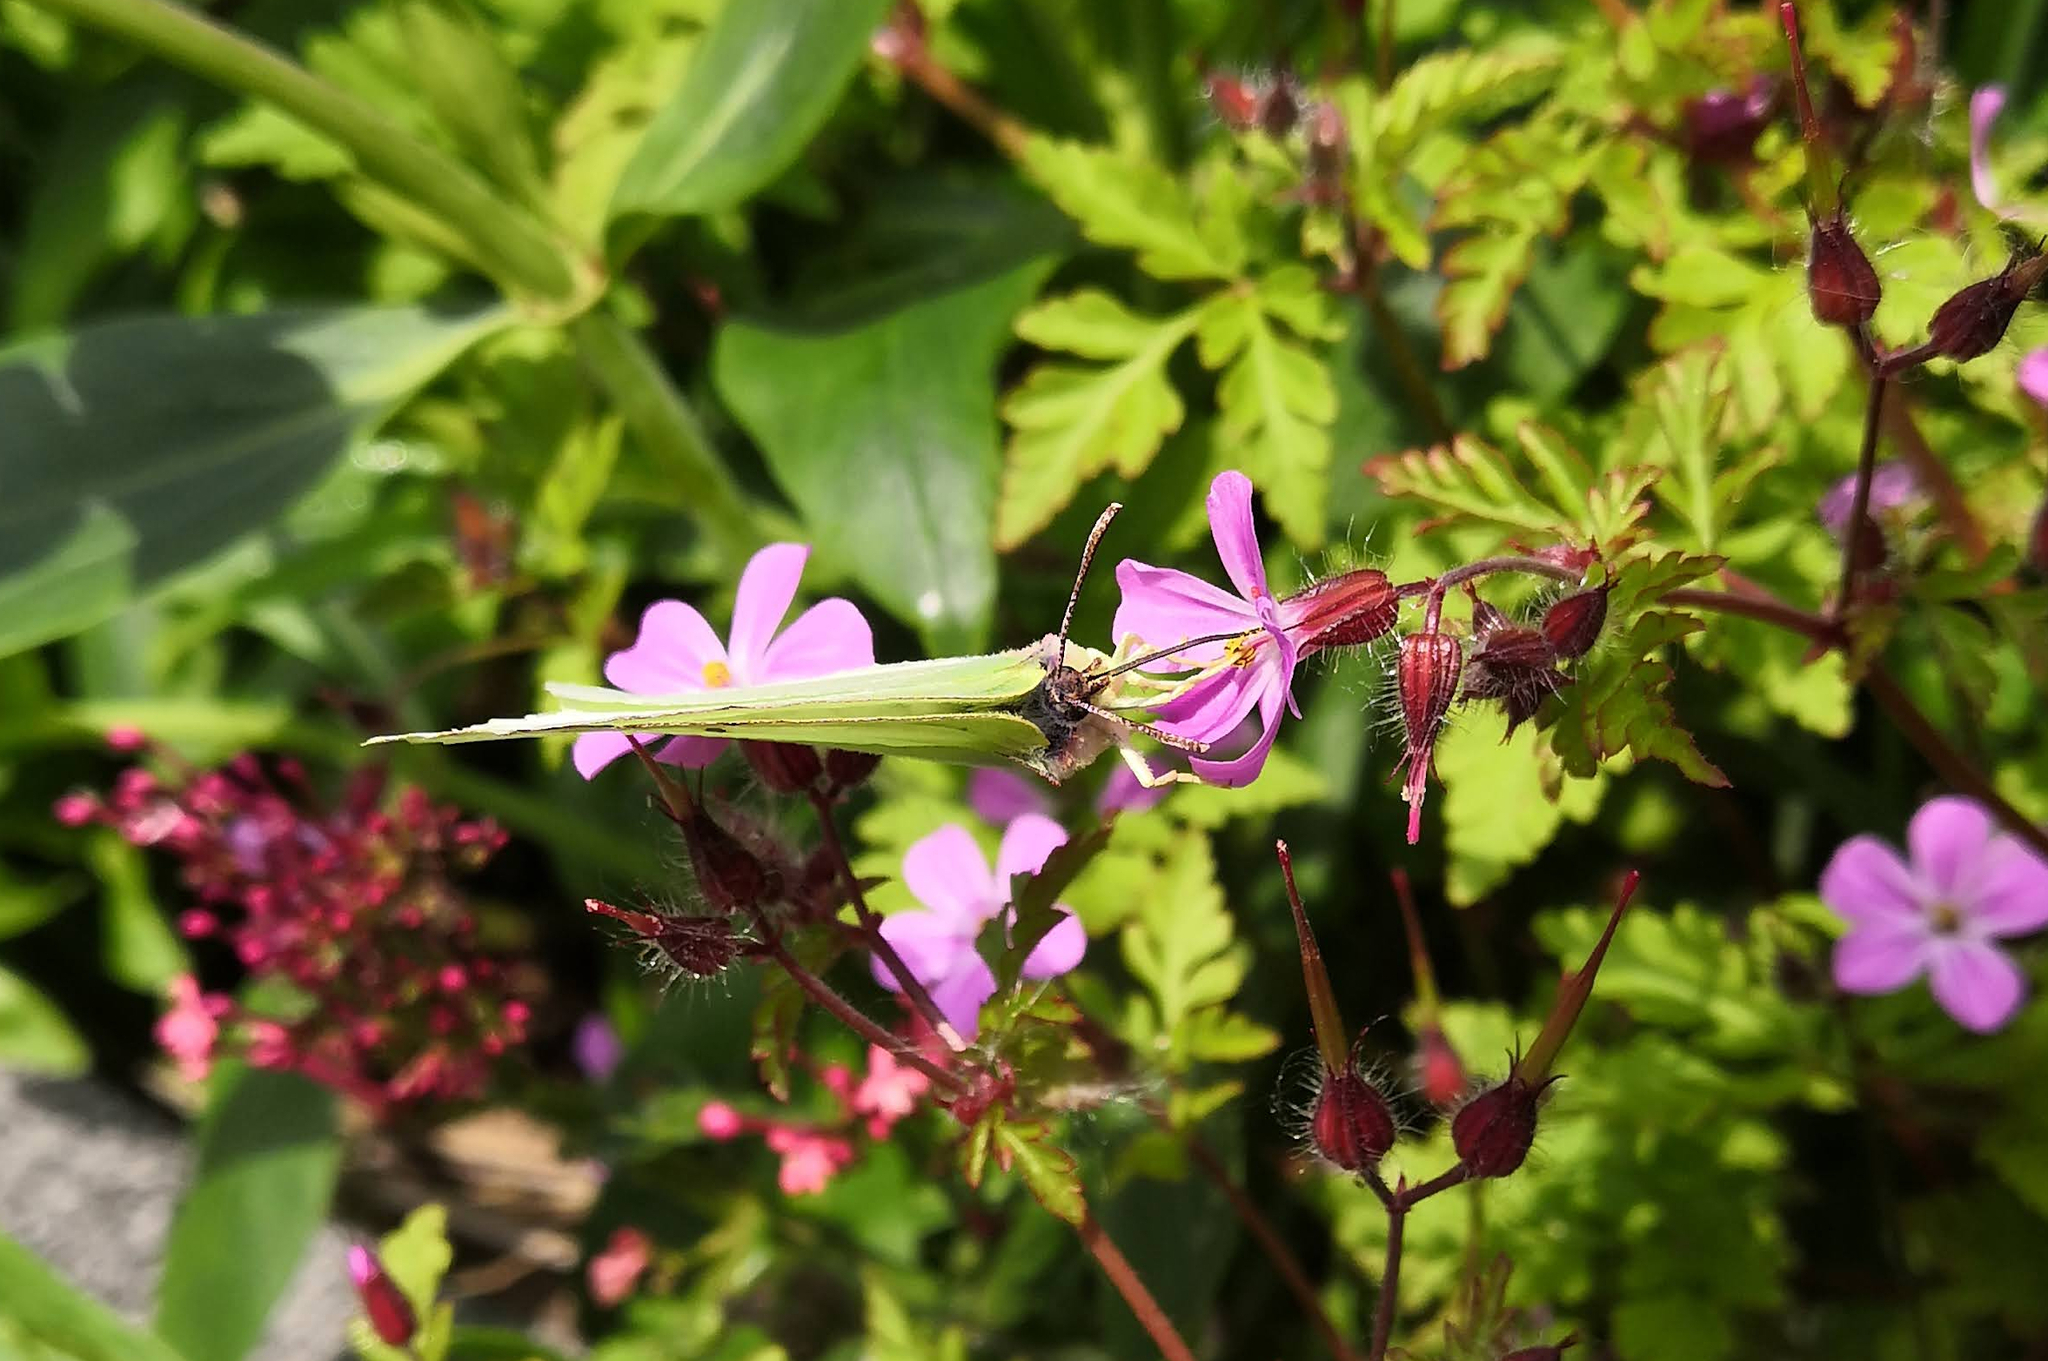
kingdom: Animalia
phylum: Arthropoda
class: Insecta
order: Lepidoptera
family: Pieridae
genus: Gonepteryx
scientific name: Gonepteryx rhamni
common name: Brimstone
